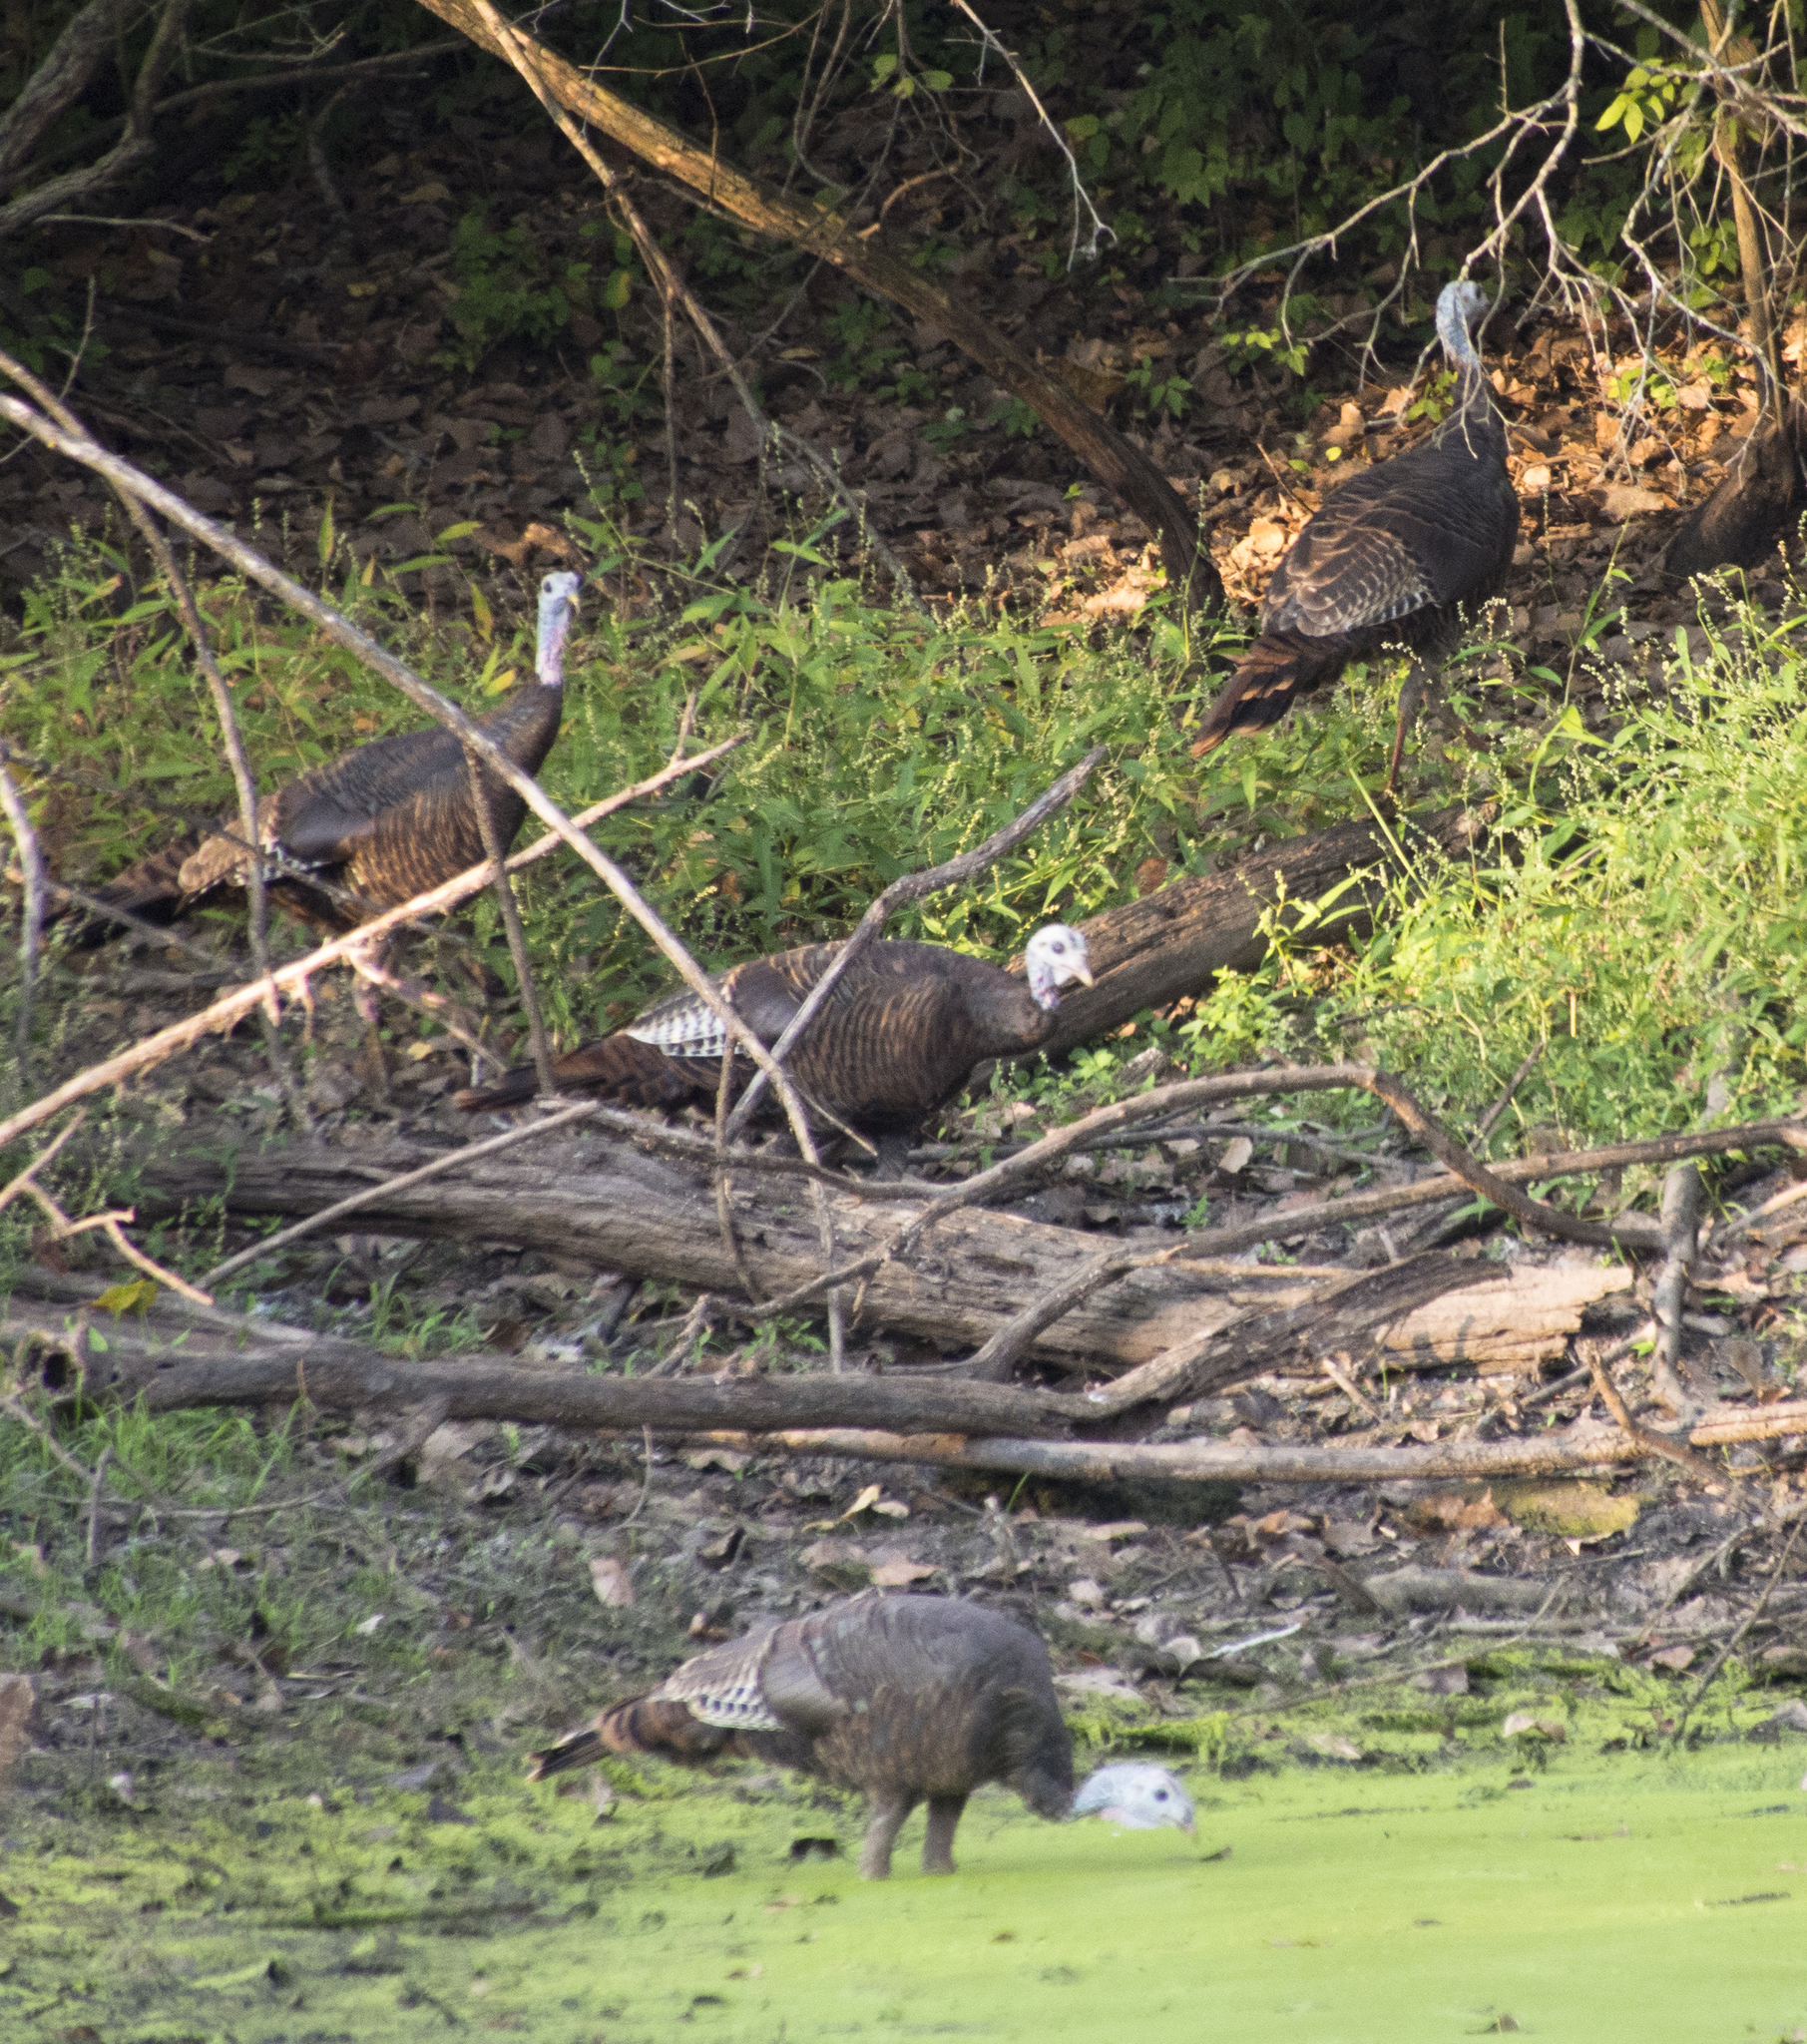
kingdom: Animalia
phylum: Chordata
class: Aves
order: Galliformes
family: Phasianidae
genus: Meleagris
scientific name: Meleagris gallopavo
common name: Wild turkey
